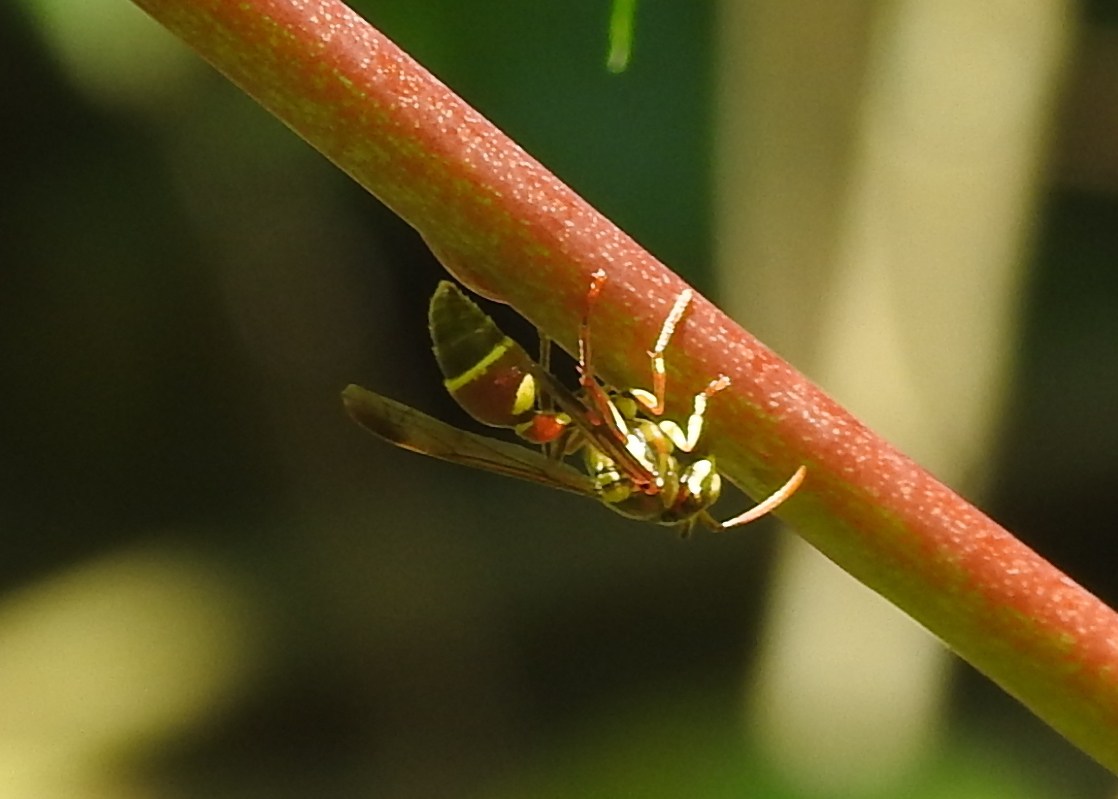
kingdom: Animalia
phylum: Arthropoda
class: Insecta
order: Hymenoptera
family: Vespidae
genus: Ropalidia
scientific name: Ropalidia stigma
